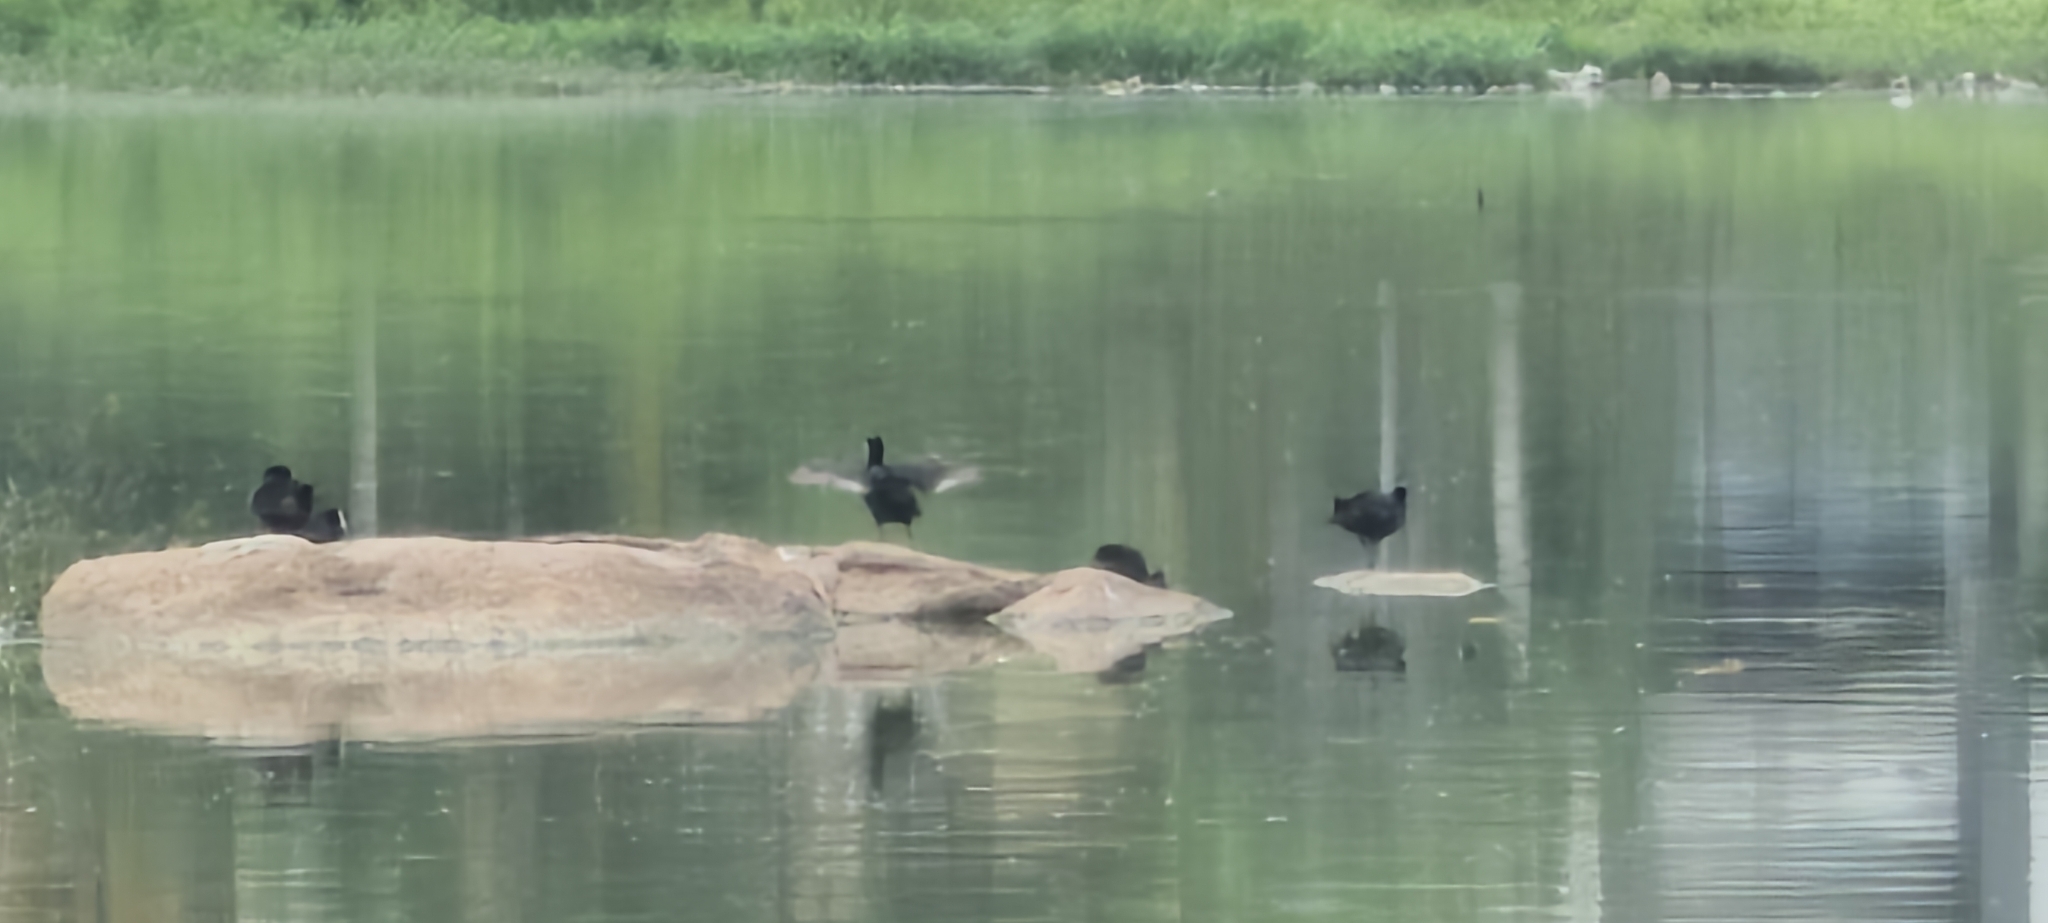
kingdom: Animalia
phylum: Chordata
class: Aves
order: Suliformes
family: Phalacrocoracidae
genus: Microcarbo
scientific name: Microcarbo niger
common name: Little cormorant
